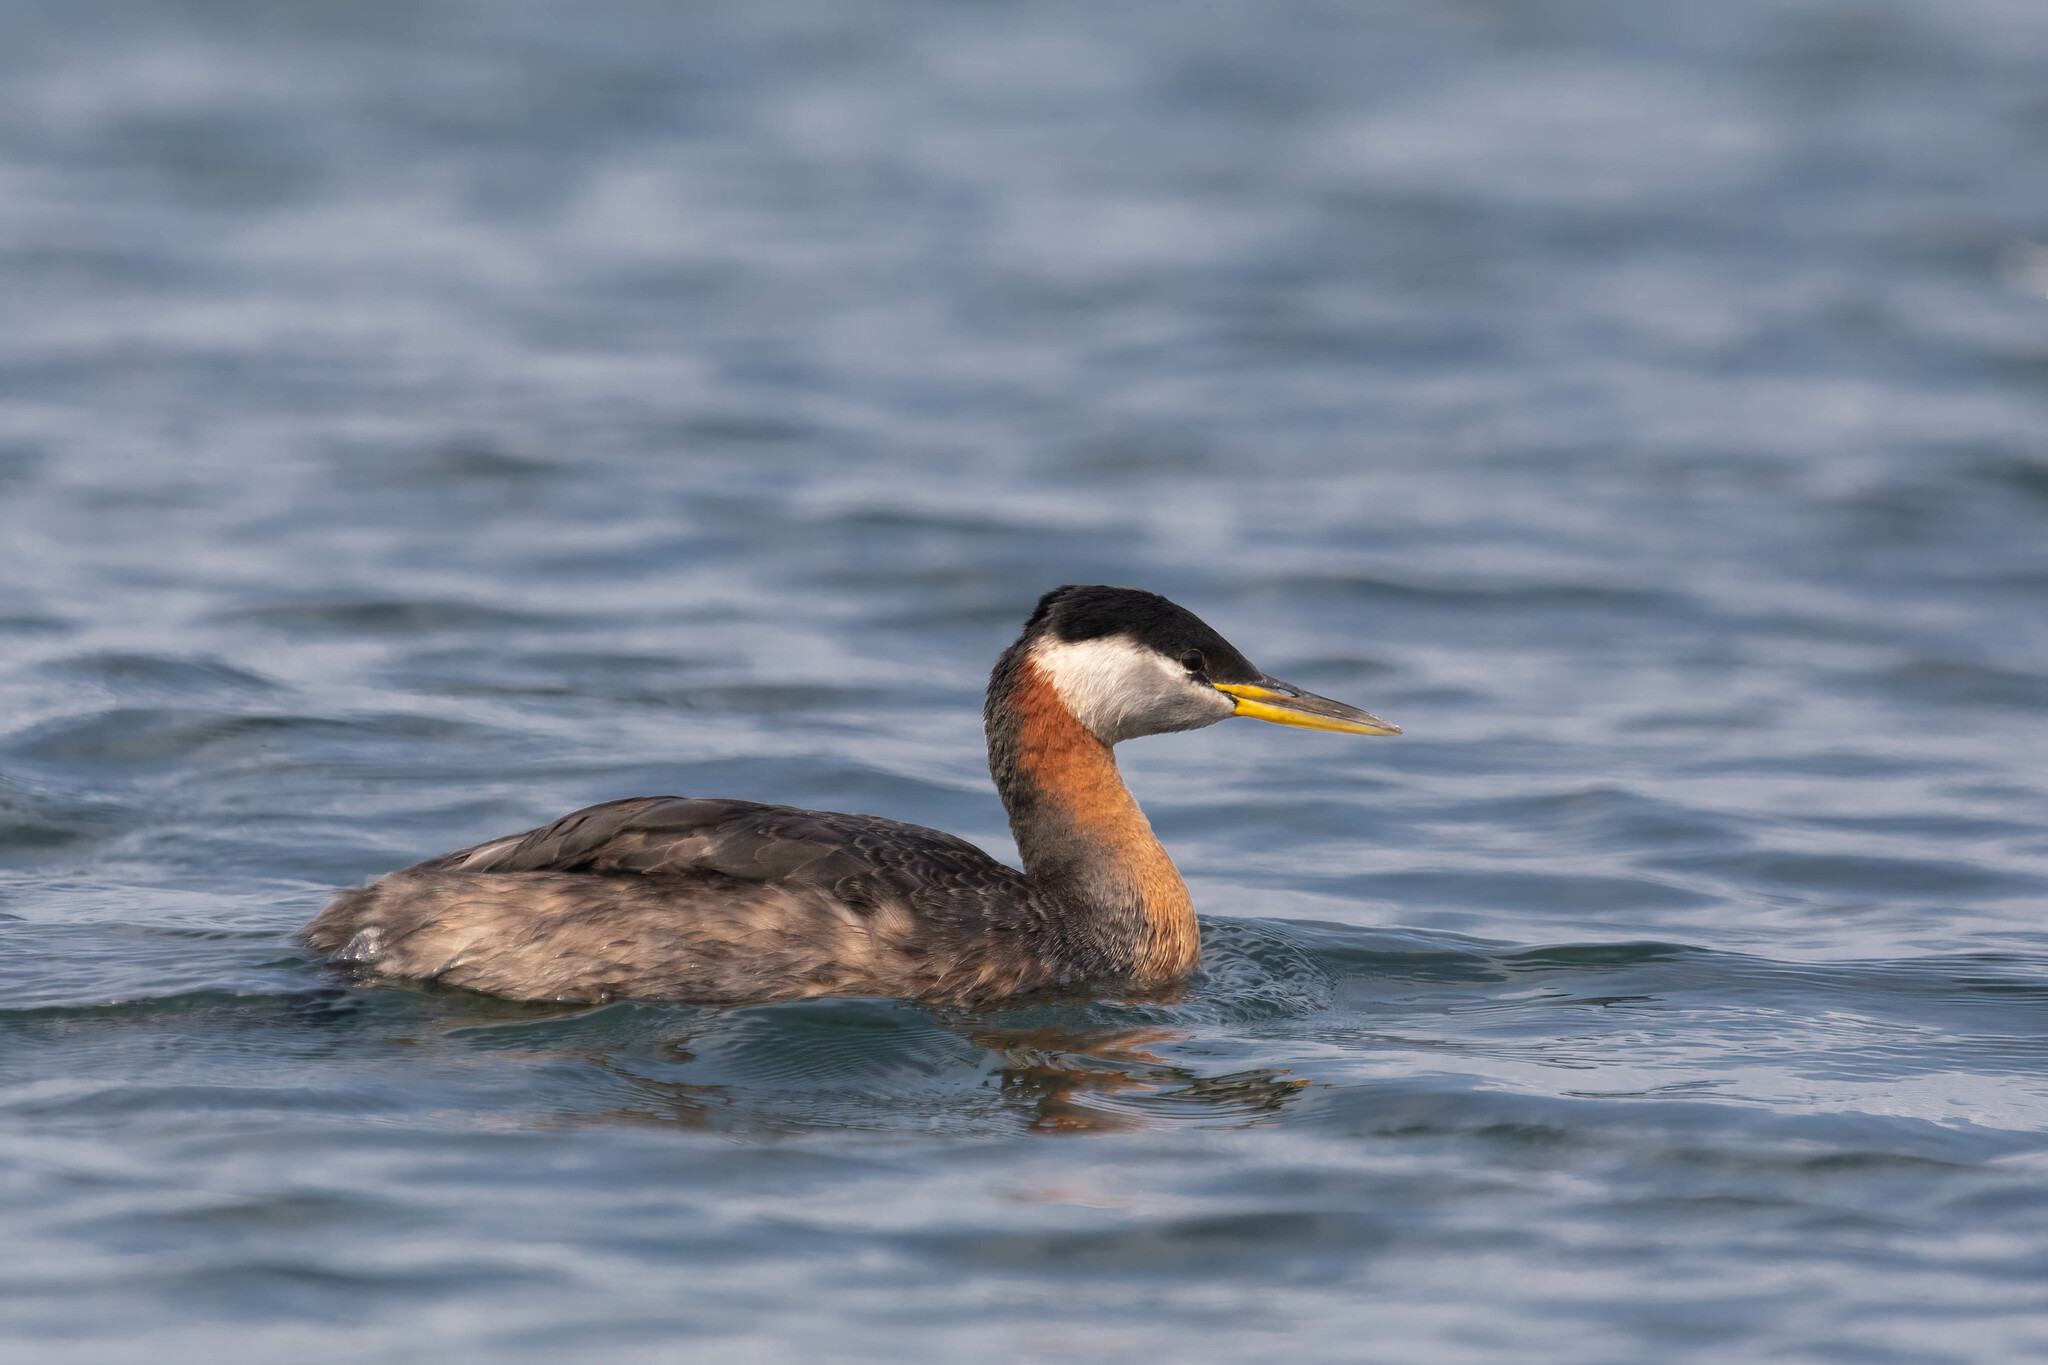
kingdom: Animalia
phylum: Chordata
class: Aves
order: Podicipediformes
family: Podicipedidae
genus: Podiceps
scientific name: Podiceps grisegena
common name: Red-necked grebe
